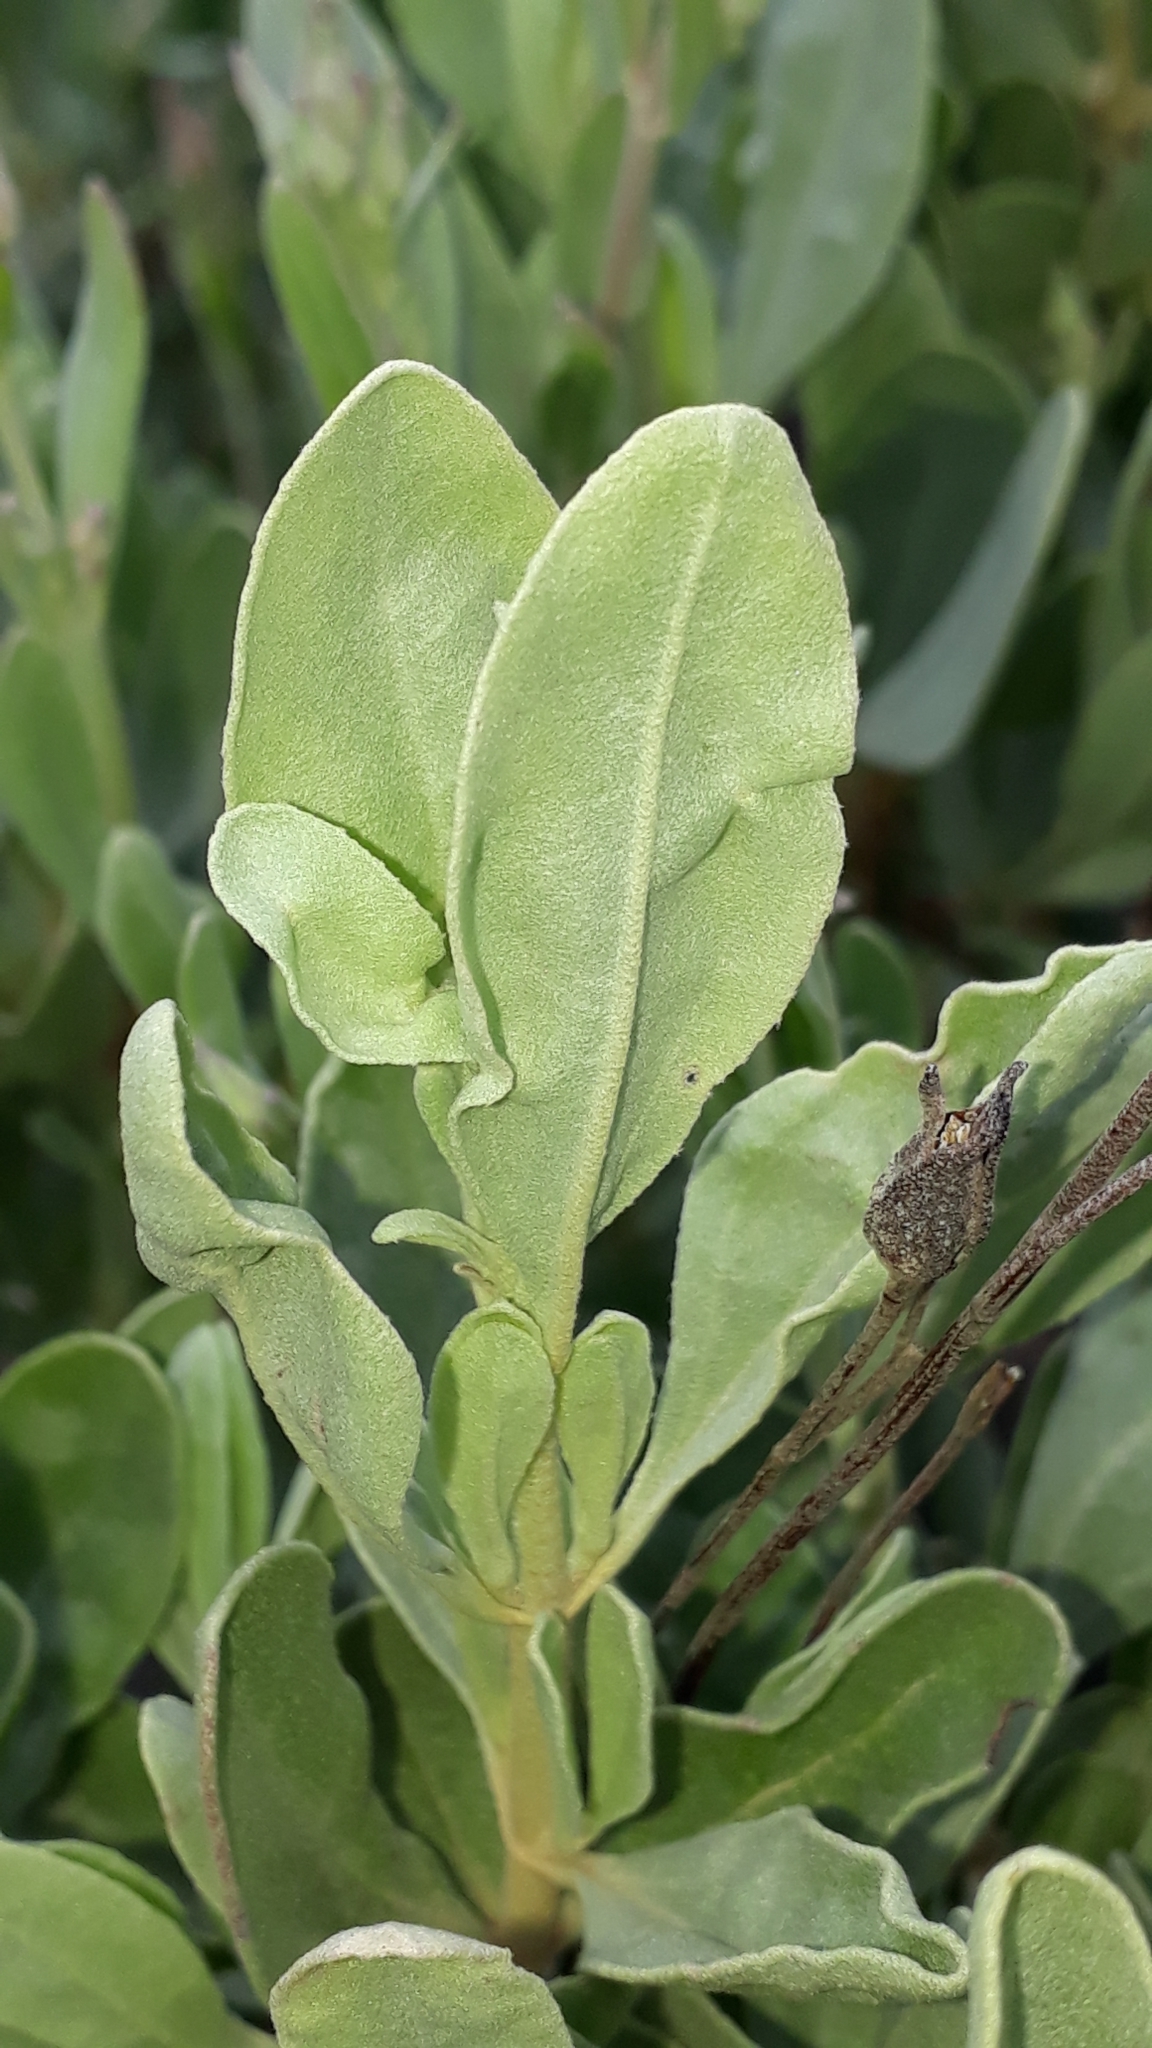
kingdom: Plantae
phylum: Tracheophyta
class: Magnoliopsida
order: Malvales
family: Cistaceae
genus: Halimium
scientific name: Halimium halimifolium
